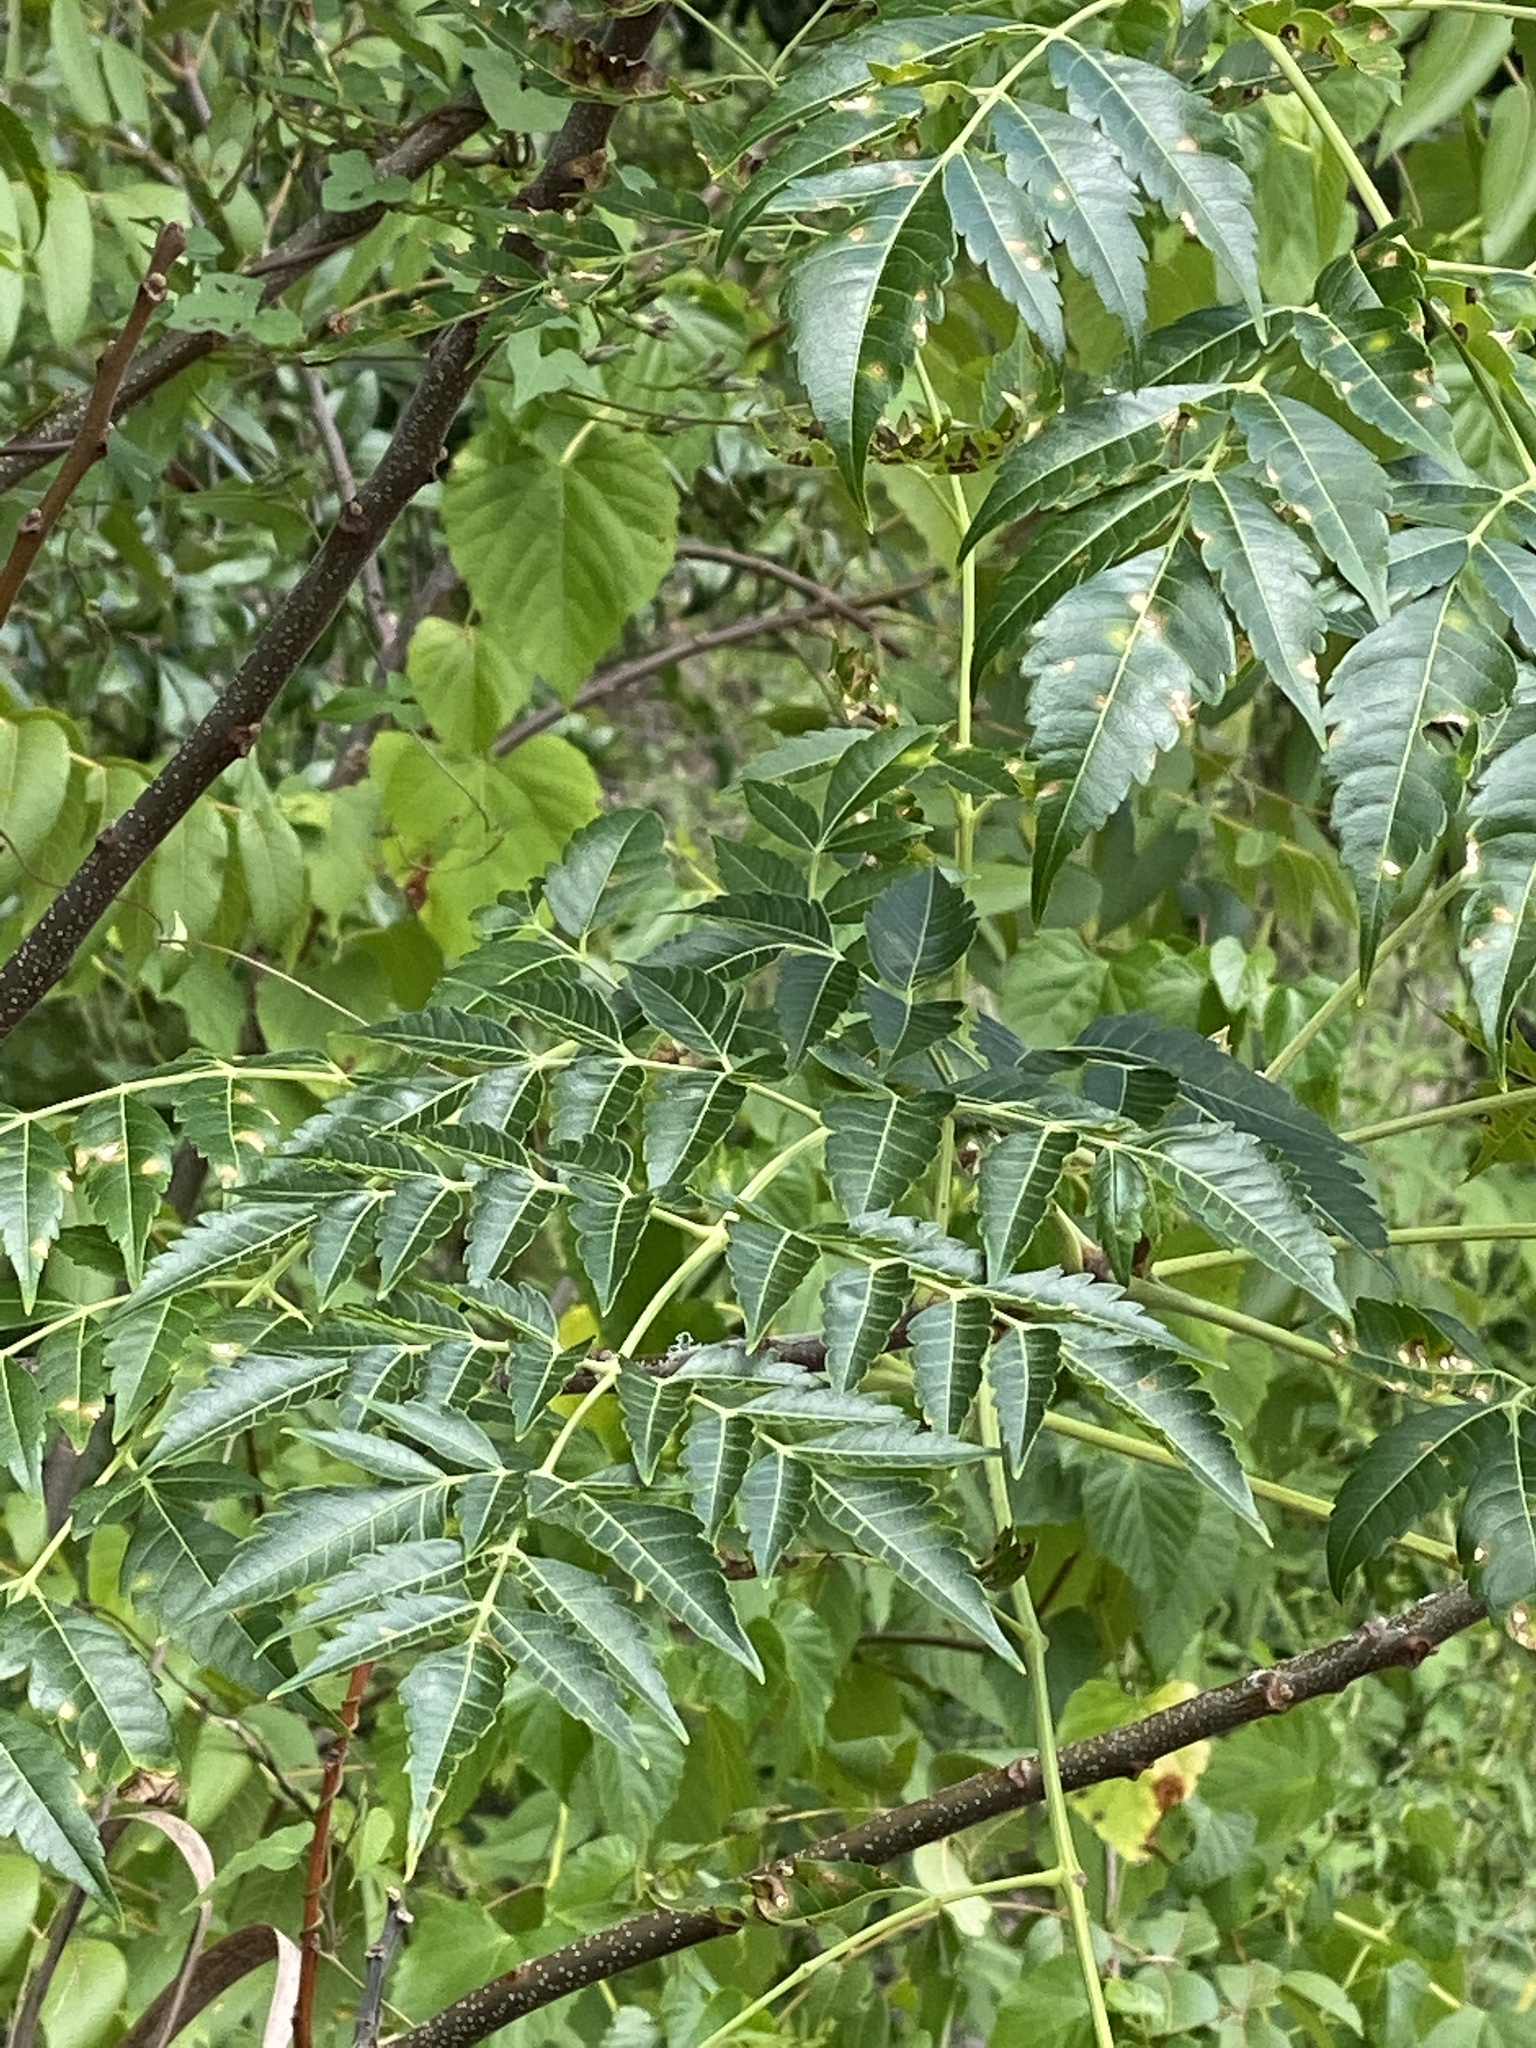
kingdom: Plantae
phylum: Tracheophyta
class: Magnoliopsida
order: Sapindales
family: Meliaceae
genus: Melia
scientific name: Melia azedarach
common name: Chinaberrytree
